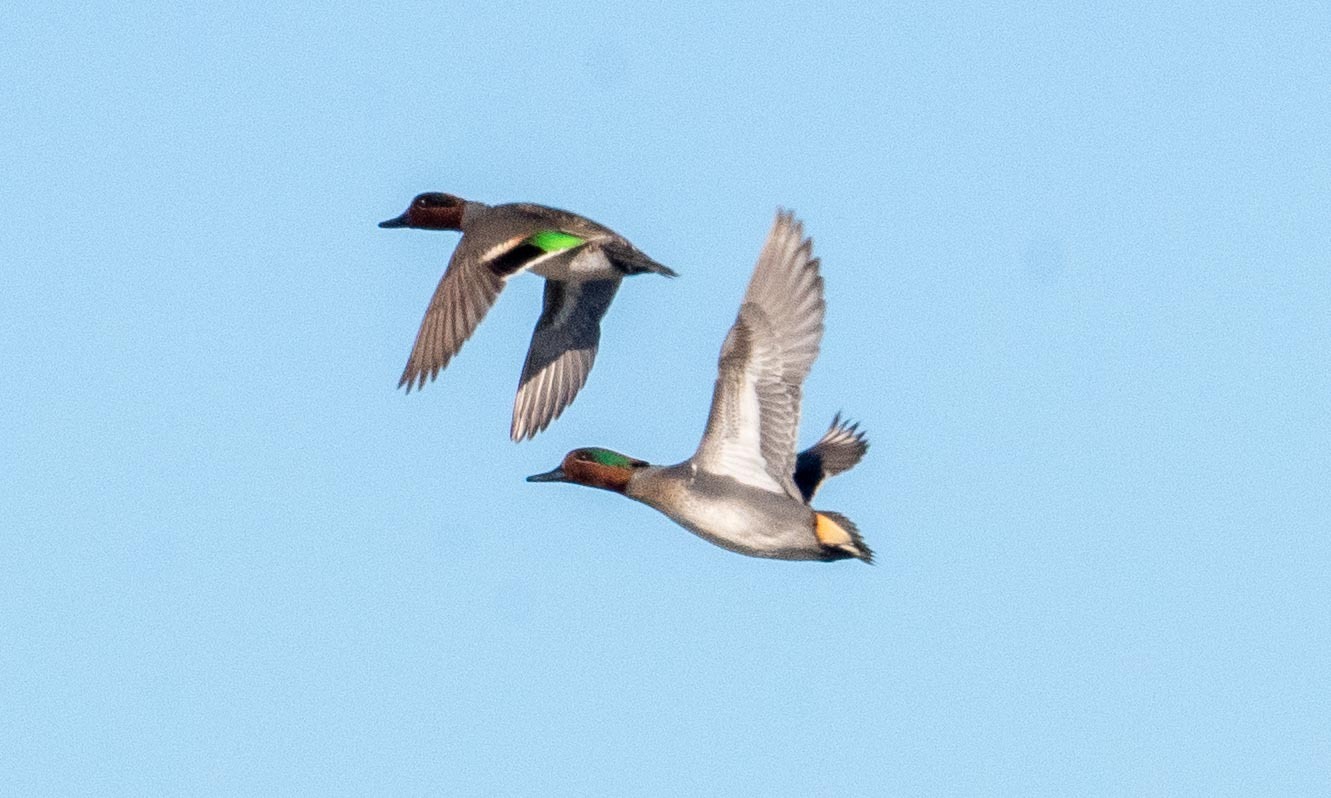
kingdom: Animalia
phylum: Chordata
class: Aves
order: Anseriformes
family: Anatidae
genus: Anas
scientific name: Anas crecca
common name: Eurasian teal
